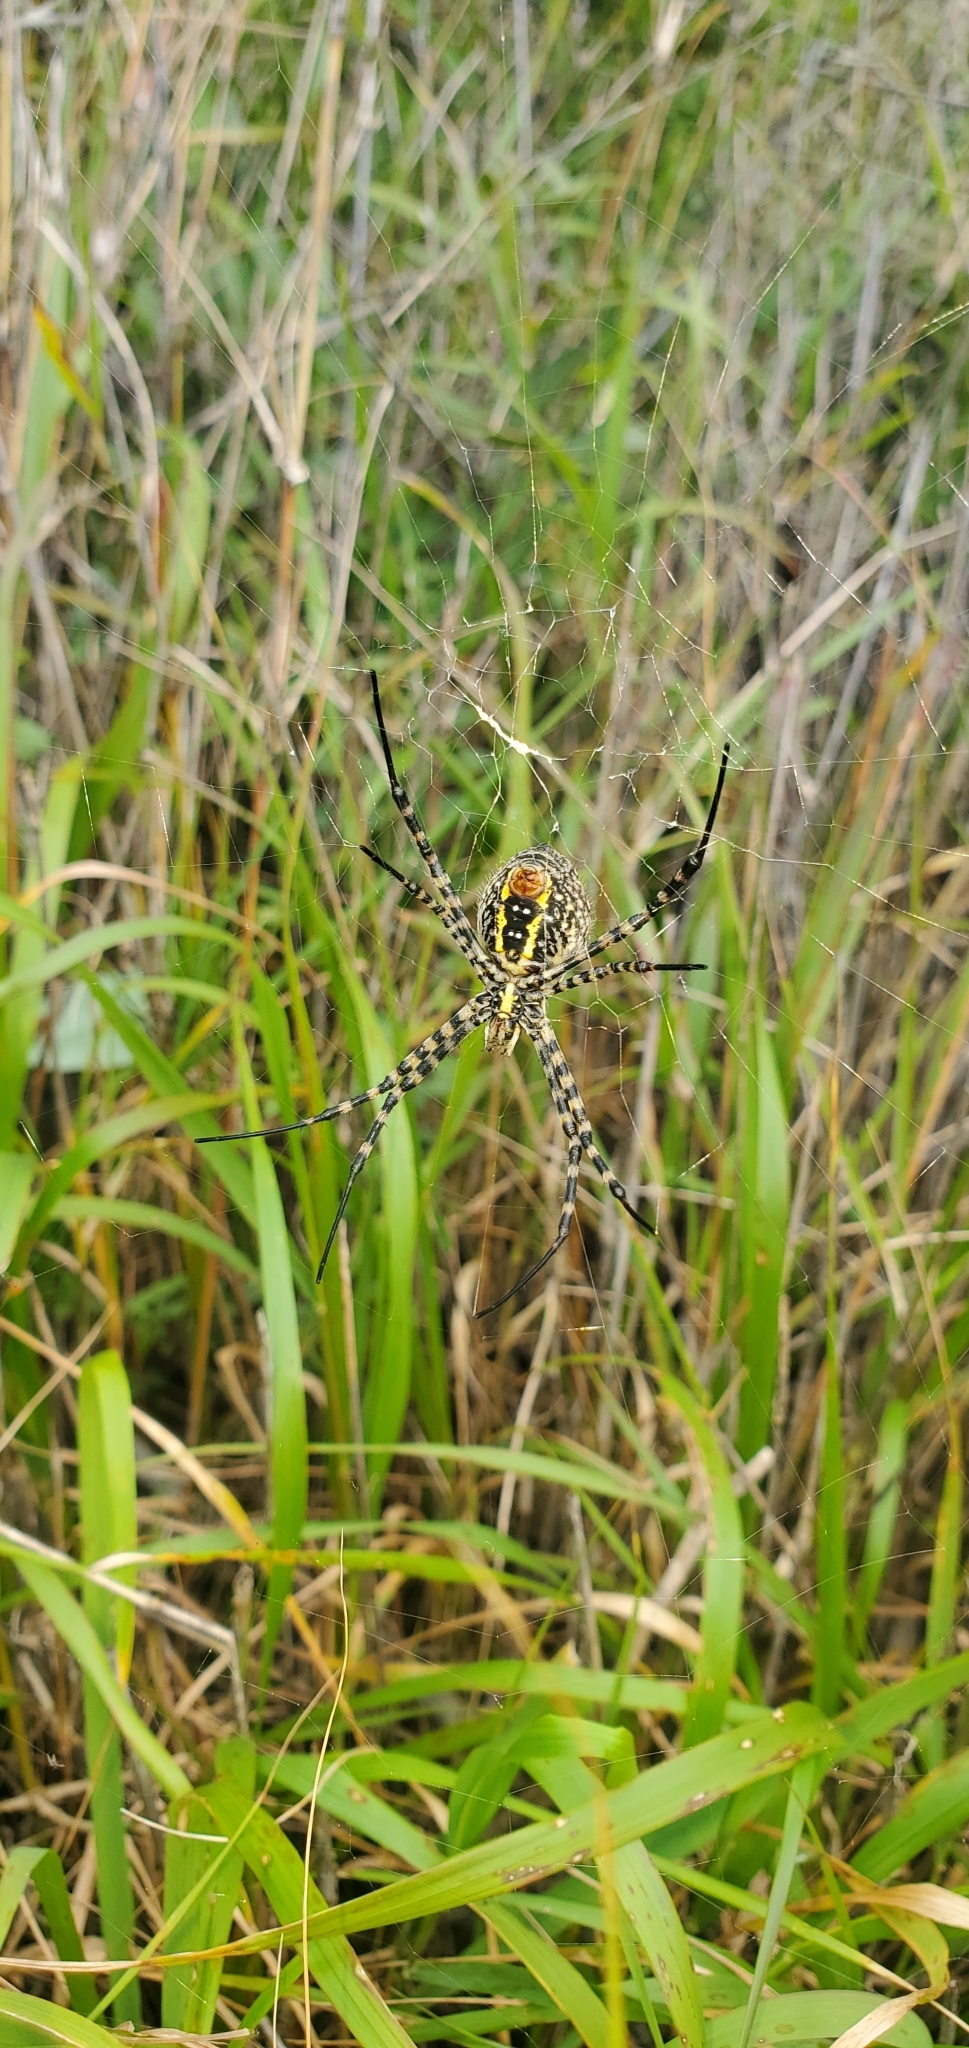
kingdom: Animalia
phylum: Arthropoda
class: Arachnida
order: Araneae
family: Araneidae
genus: Argiope
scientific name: Argiope trifasciata
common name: Banded garden spider
